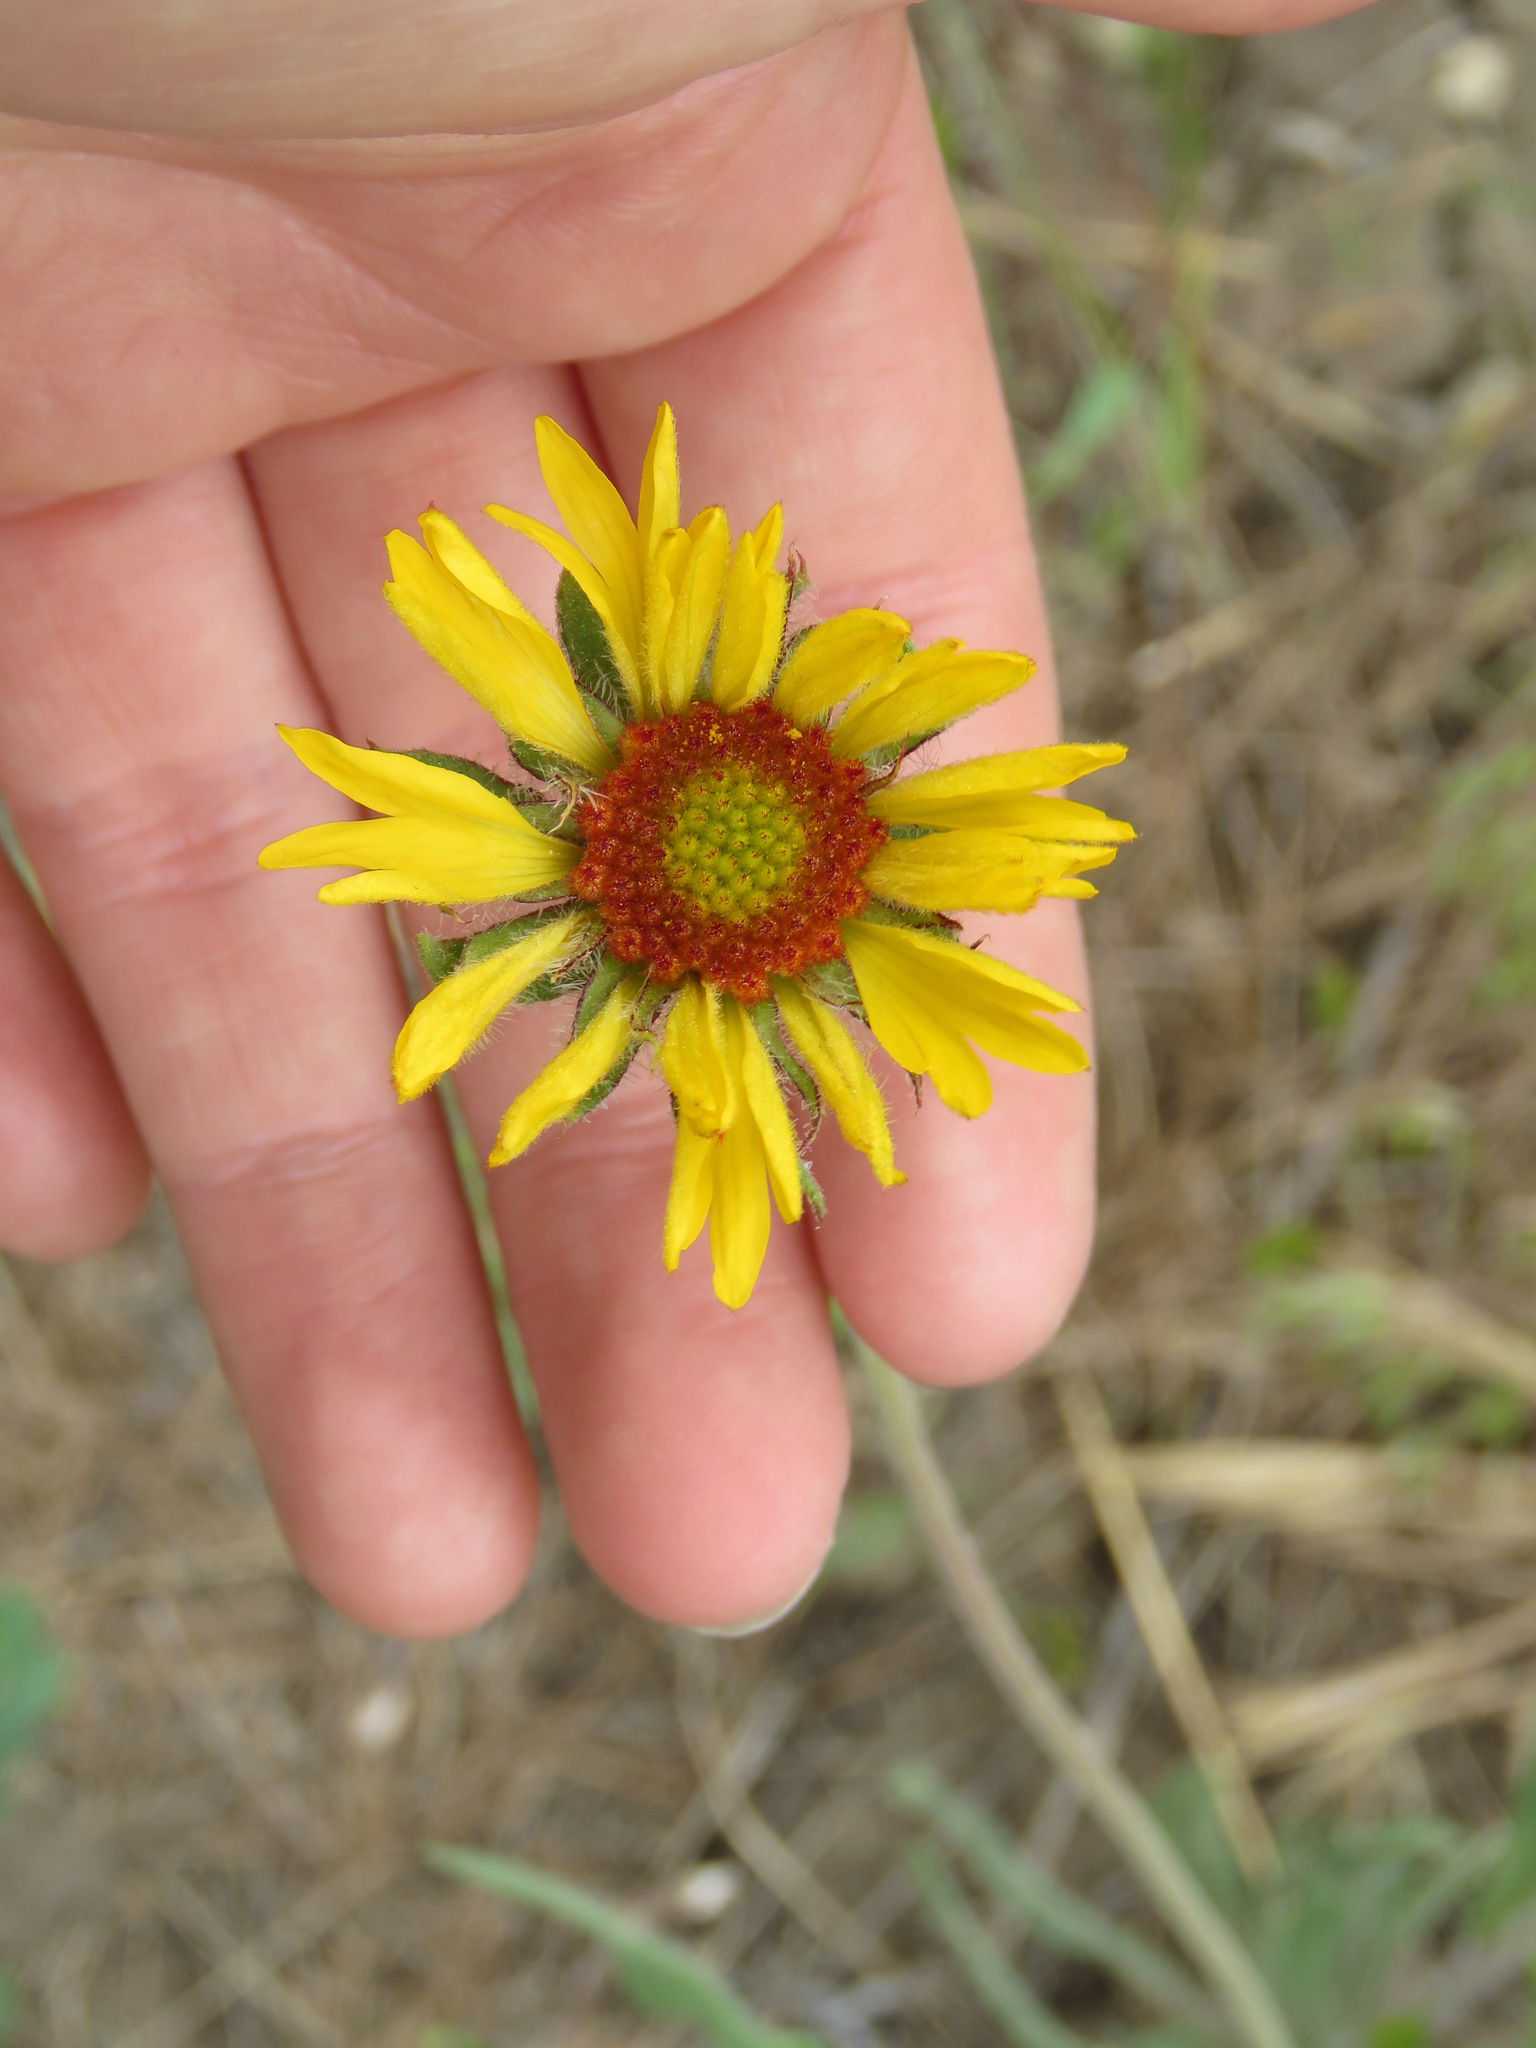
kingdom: Plantae
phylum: Tracheophyta
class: Magnoliopsida
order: Asterales
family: Asteraceae
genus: Gaillardia
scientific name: Gaillardia aristata
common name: Blanket-flower
